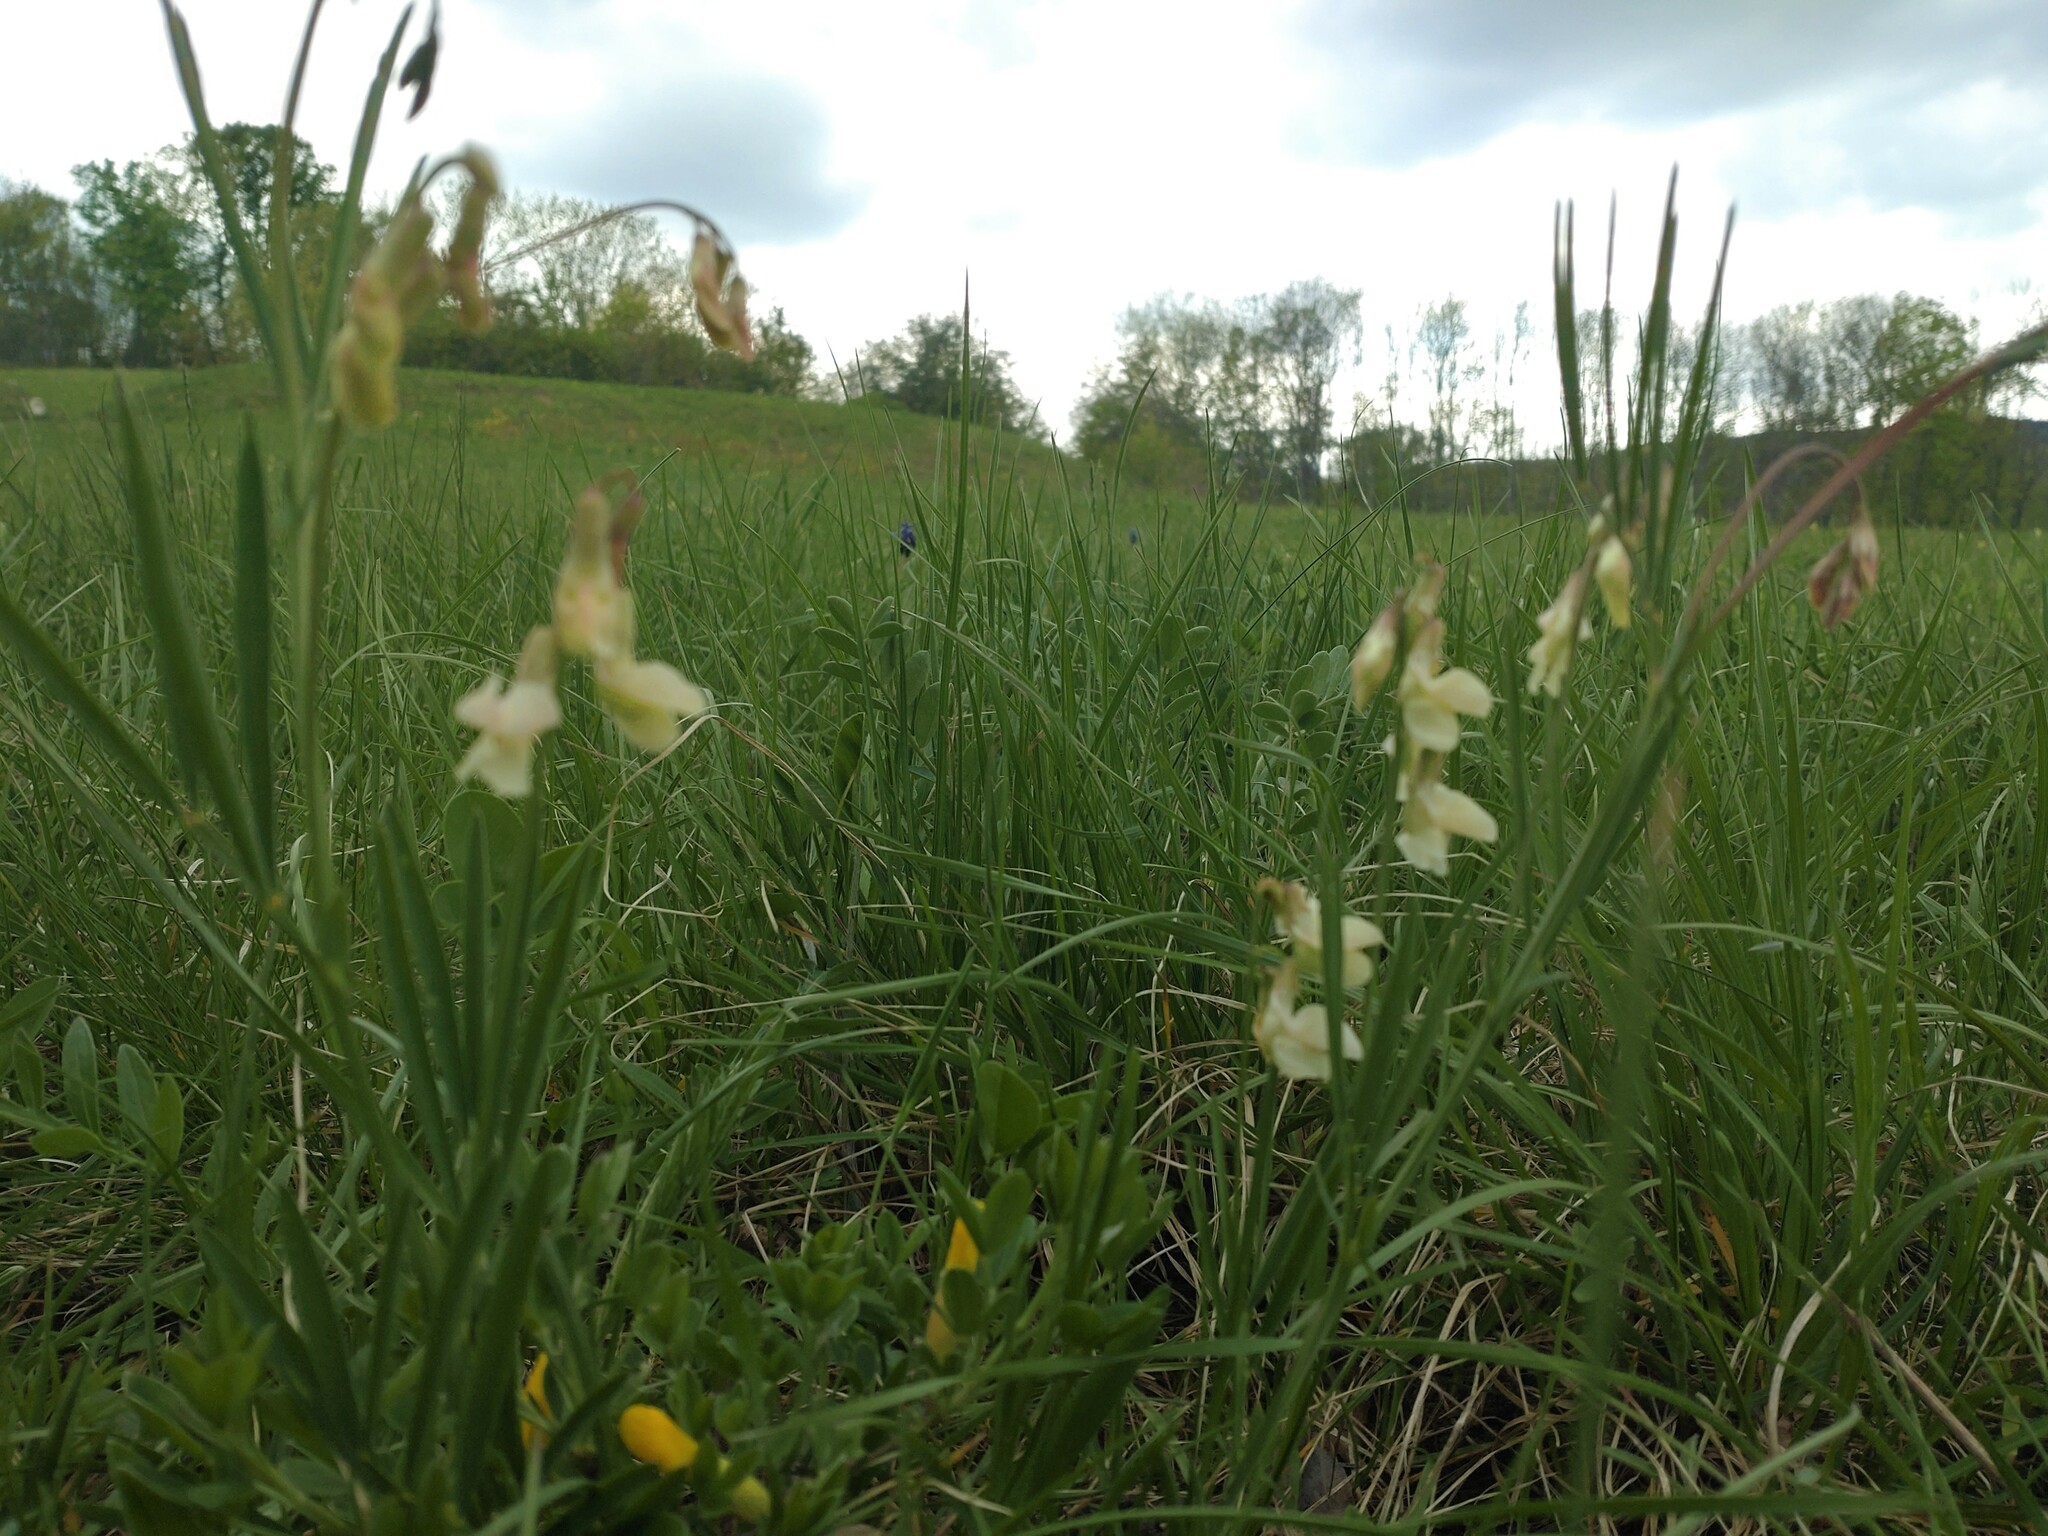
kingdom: Plantae
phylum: Tracheophyta
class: Magnoliopsida
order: Fabales
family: Fabaceae
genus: Lathyrus
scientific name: Lathyrus pannonicus
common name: Pea
